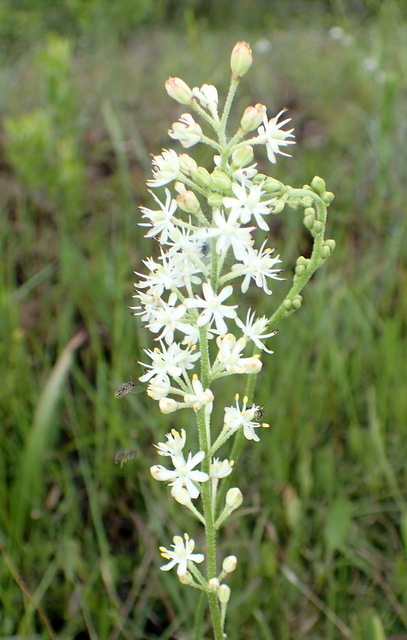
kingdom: Plantae
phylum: Tracheophyta
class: Liliopsida
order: Alismatales
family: Tofieldiaceae
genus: Triantha
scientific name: Triantha racemosa
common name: Coastal false asphodel
